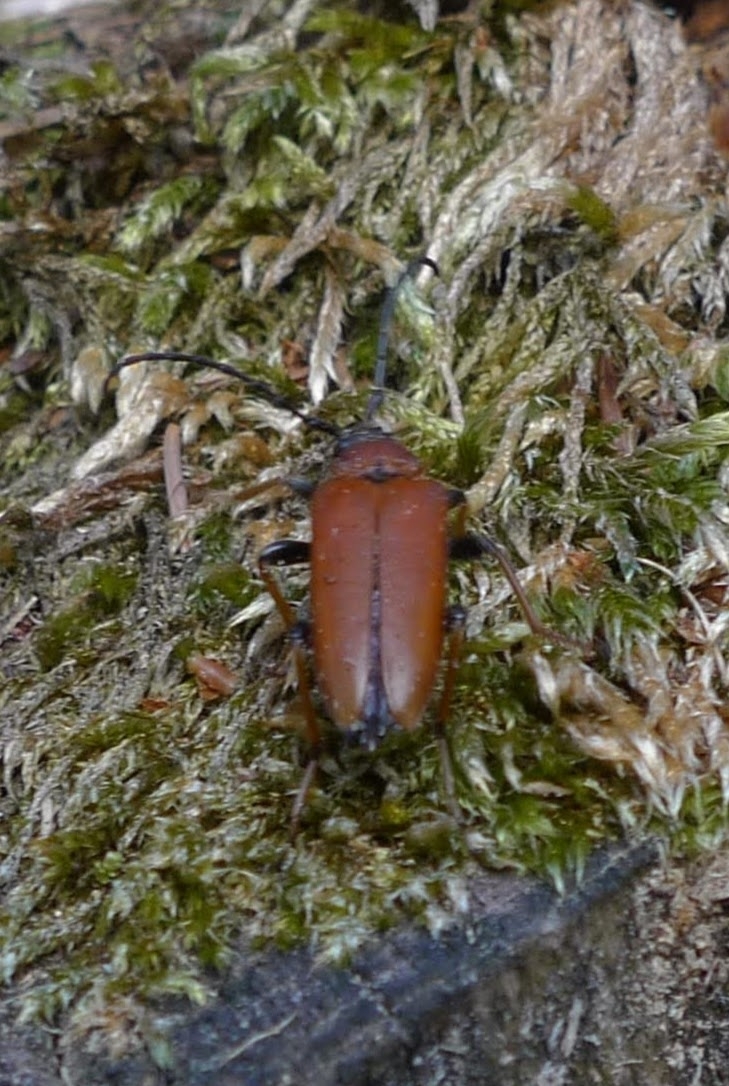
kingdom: Animalia
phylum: Arthropoda
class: Insecta
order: Coleoptera
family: Cerambycidae
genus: Stictoleptura
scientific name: Stictoleptura rubra
